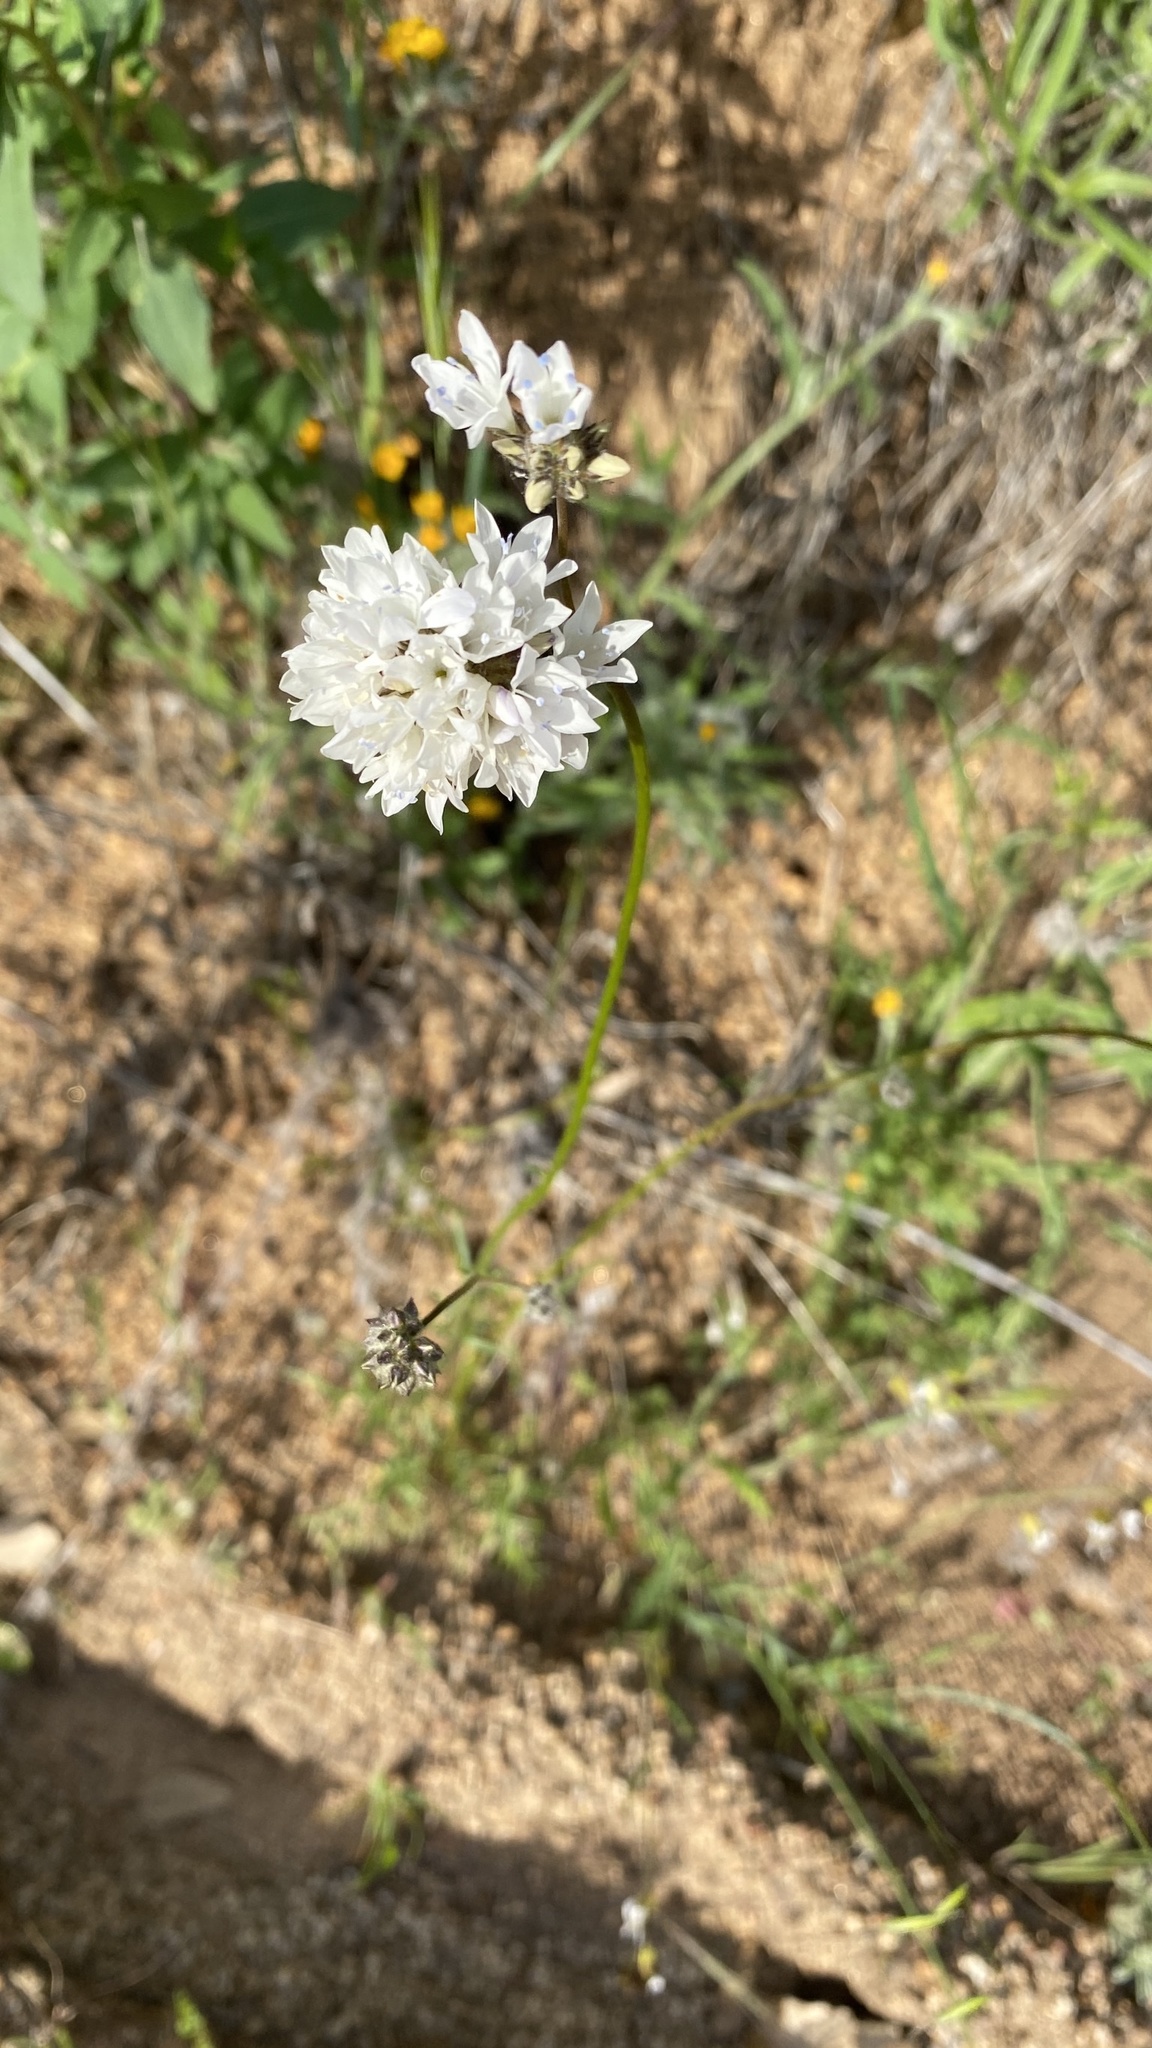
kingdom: Plantae
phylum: Tracheophyta
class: Magnoliopsida
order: Ericales
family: Polemoniaceae
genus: Gilia
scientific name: Gilia capitata
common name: Bluehead gilia
